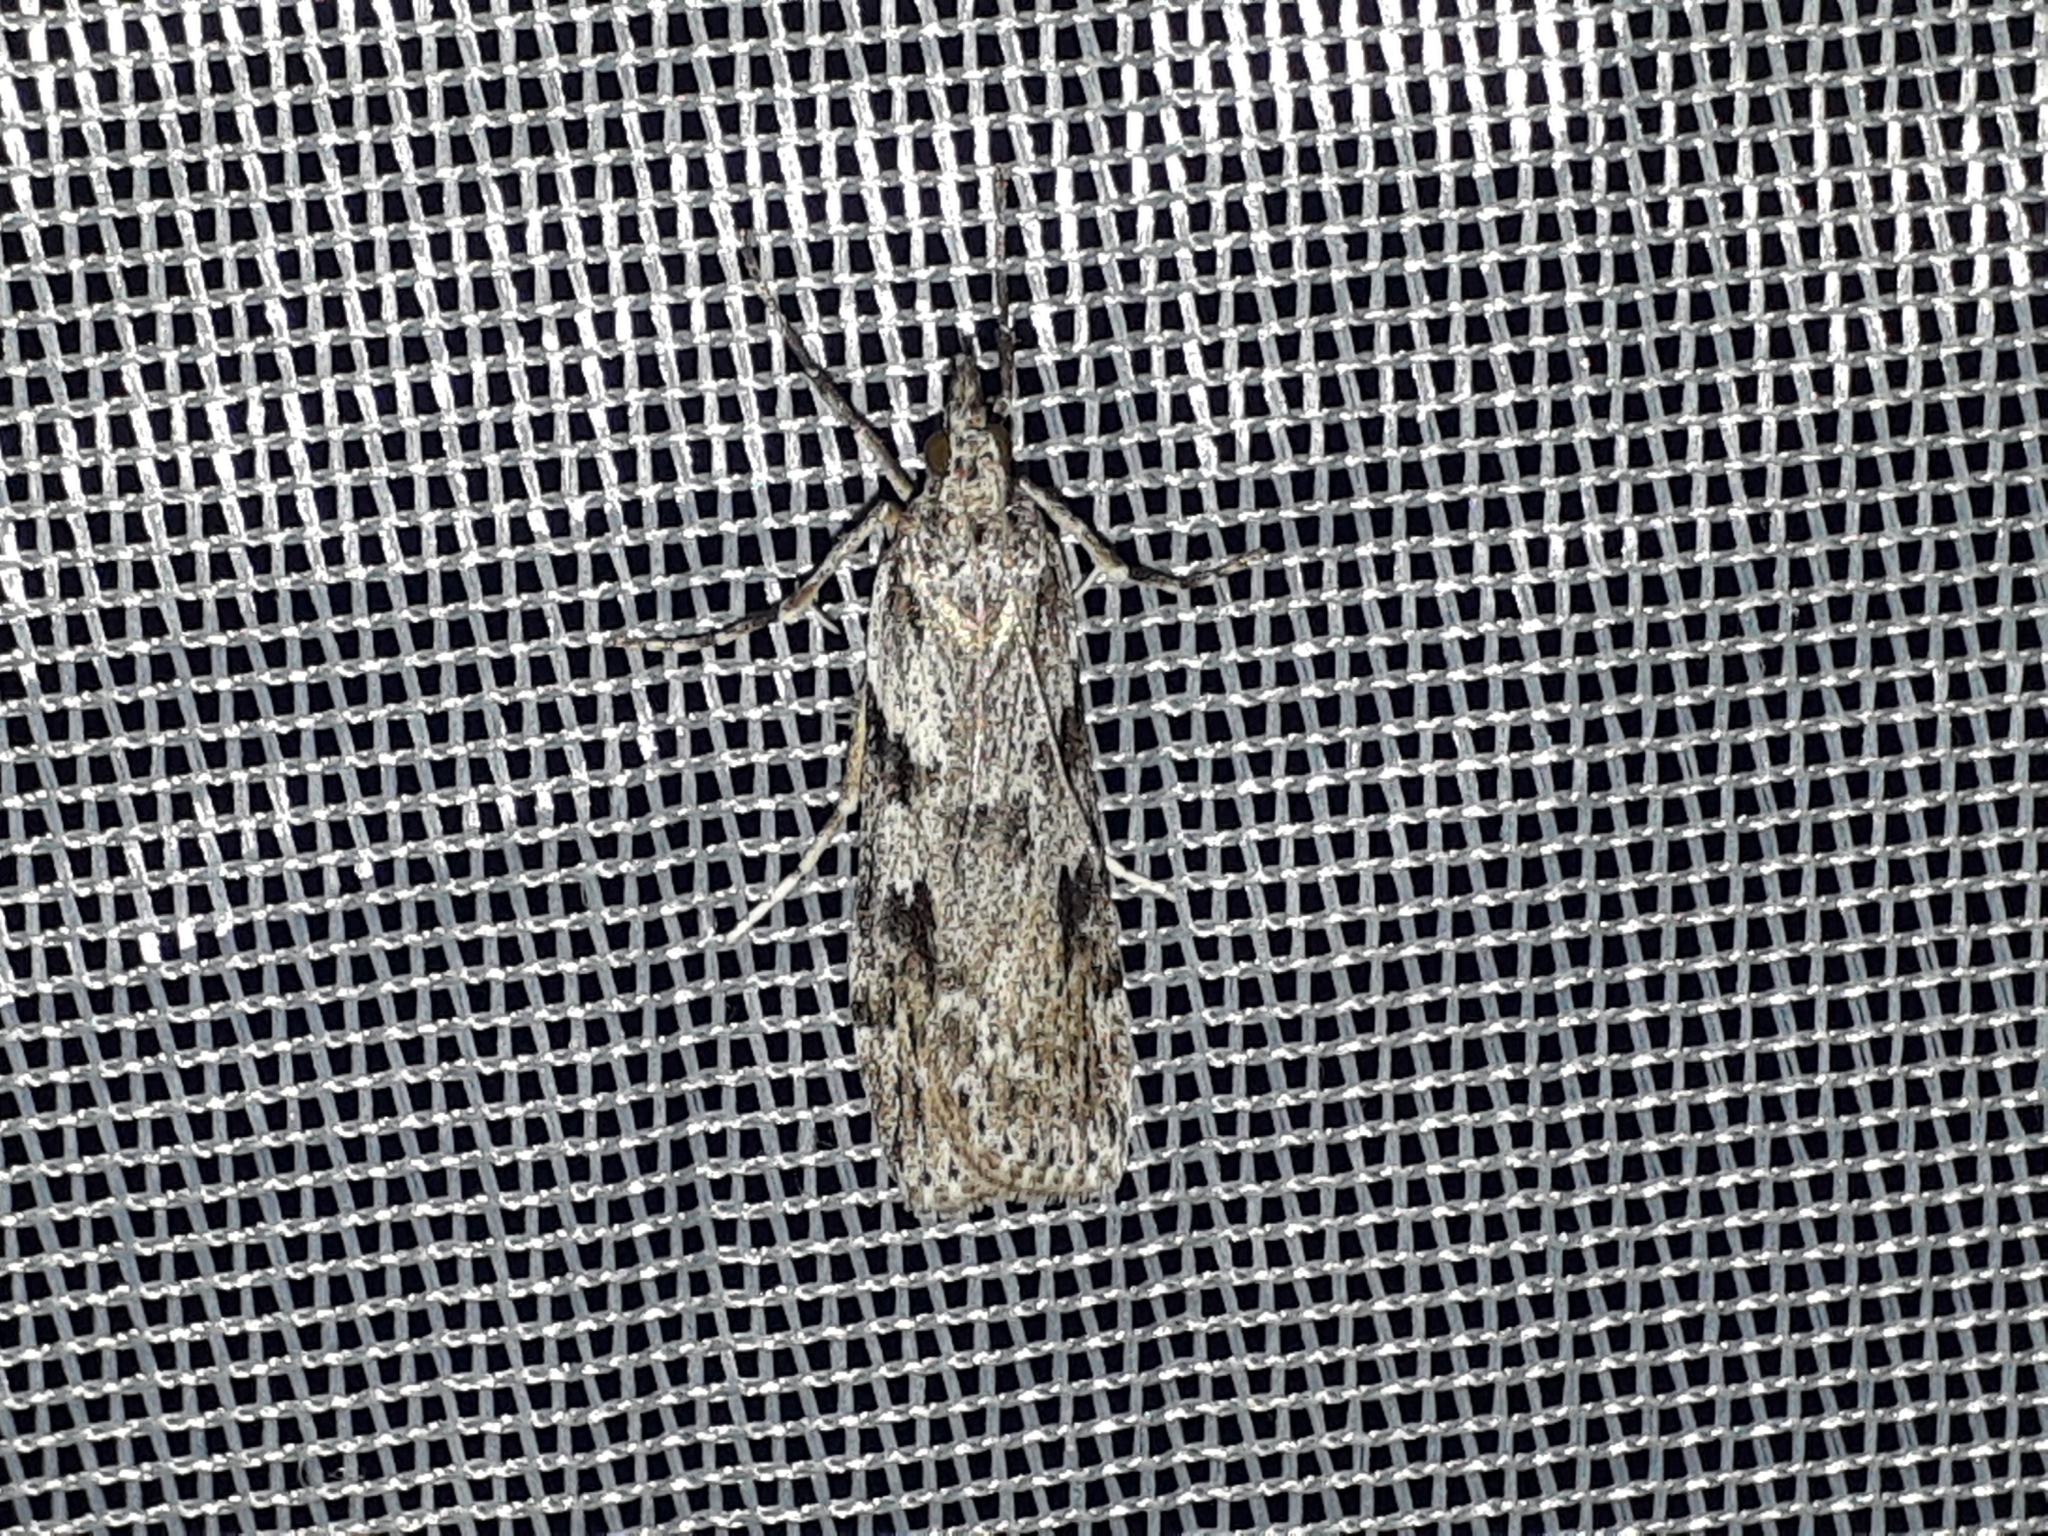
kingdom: Animalia
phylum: Arthropoda
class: Insecta
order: Lepidoptera
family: Crambidae
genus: Scoparia
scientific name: Scoparia halopis
